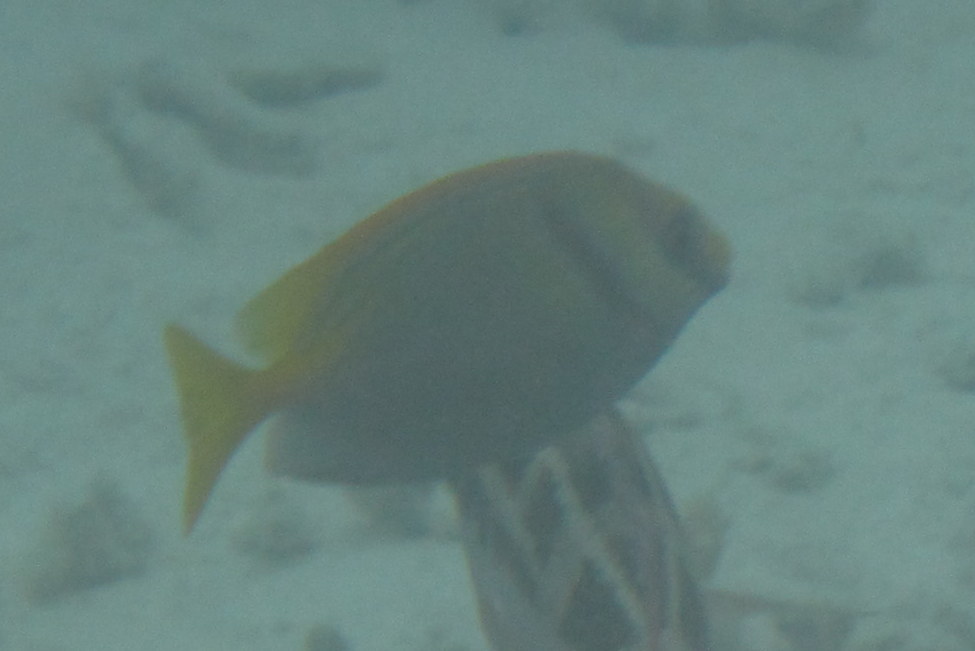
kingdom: Animalia
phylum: Chordata
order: Perciformes
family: Siganidae
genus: Siganus
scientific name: Siganus doliatus
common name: Barred spinefoot
